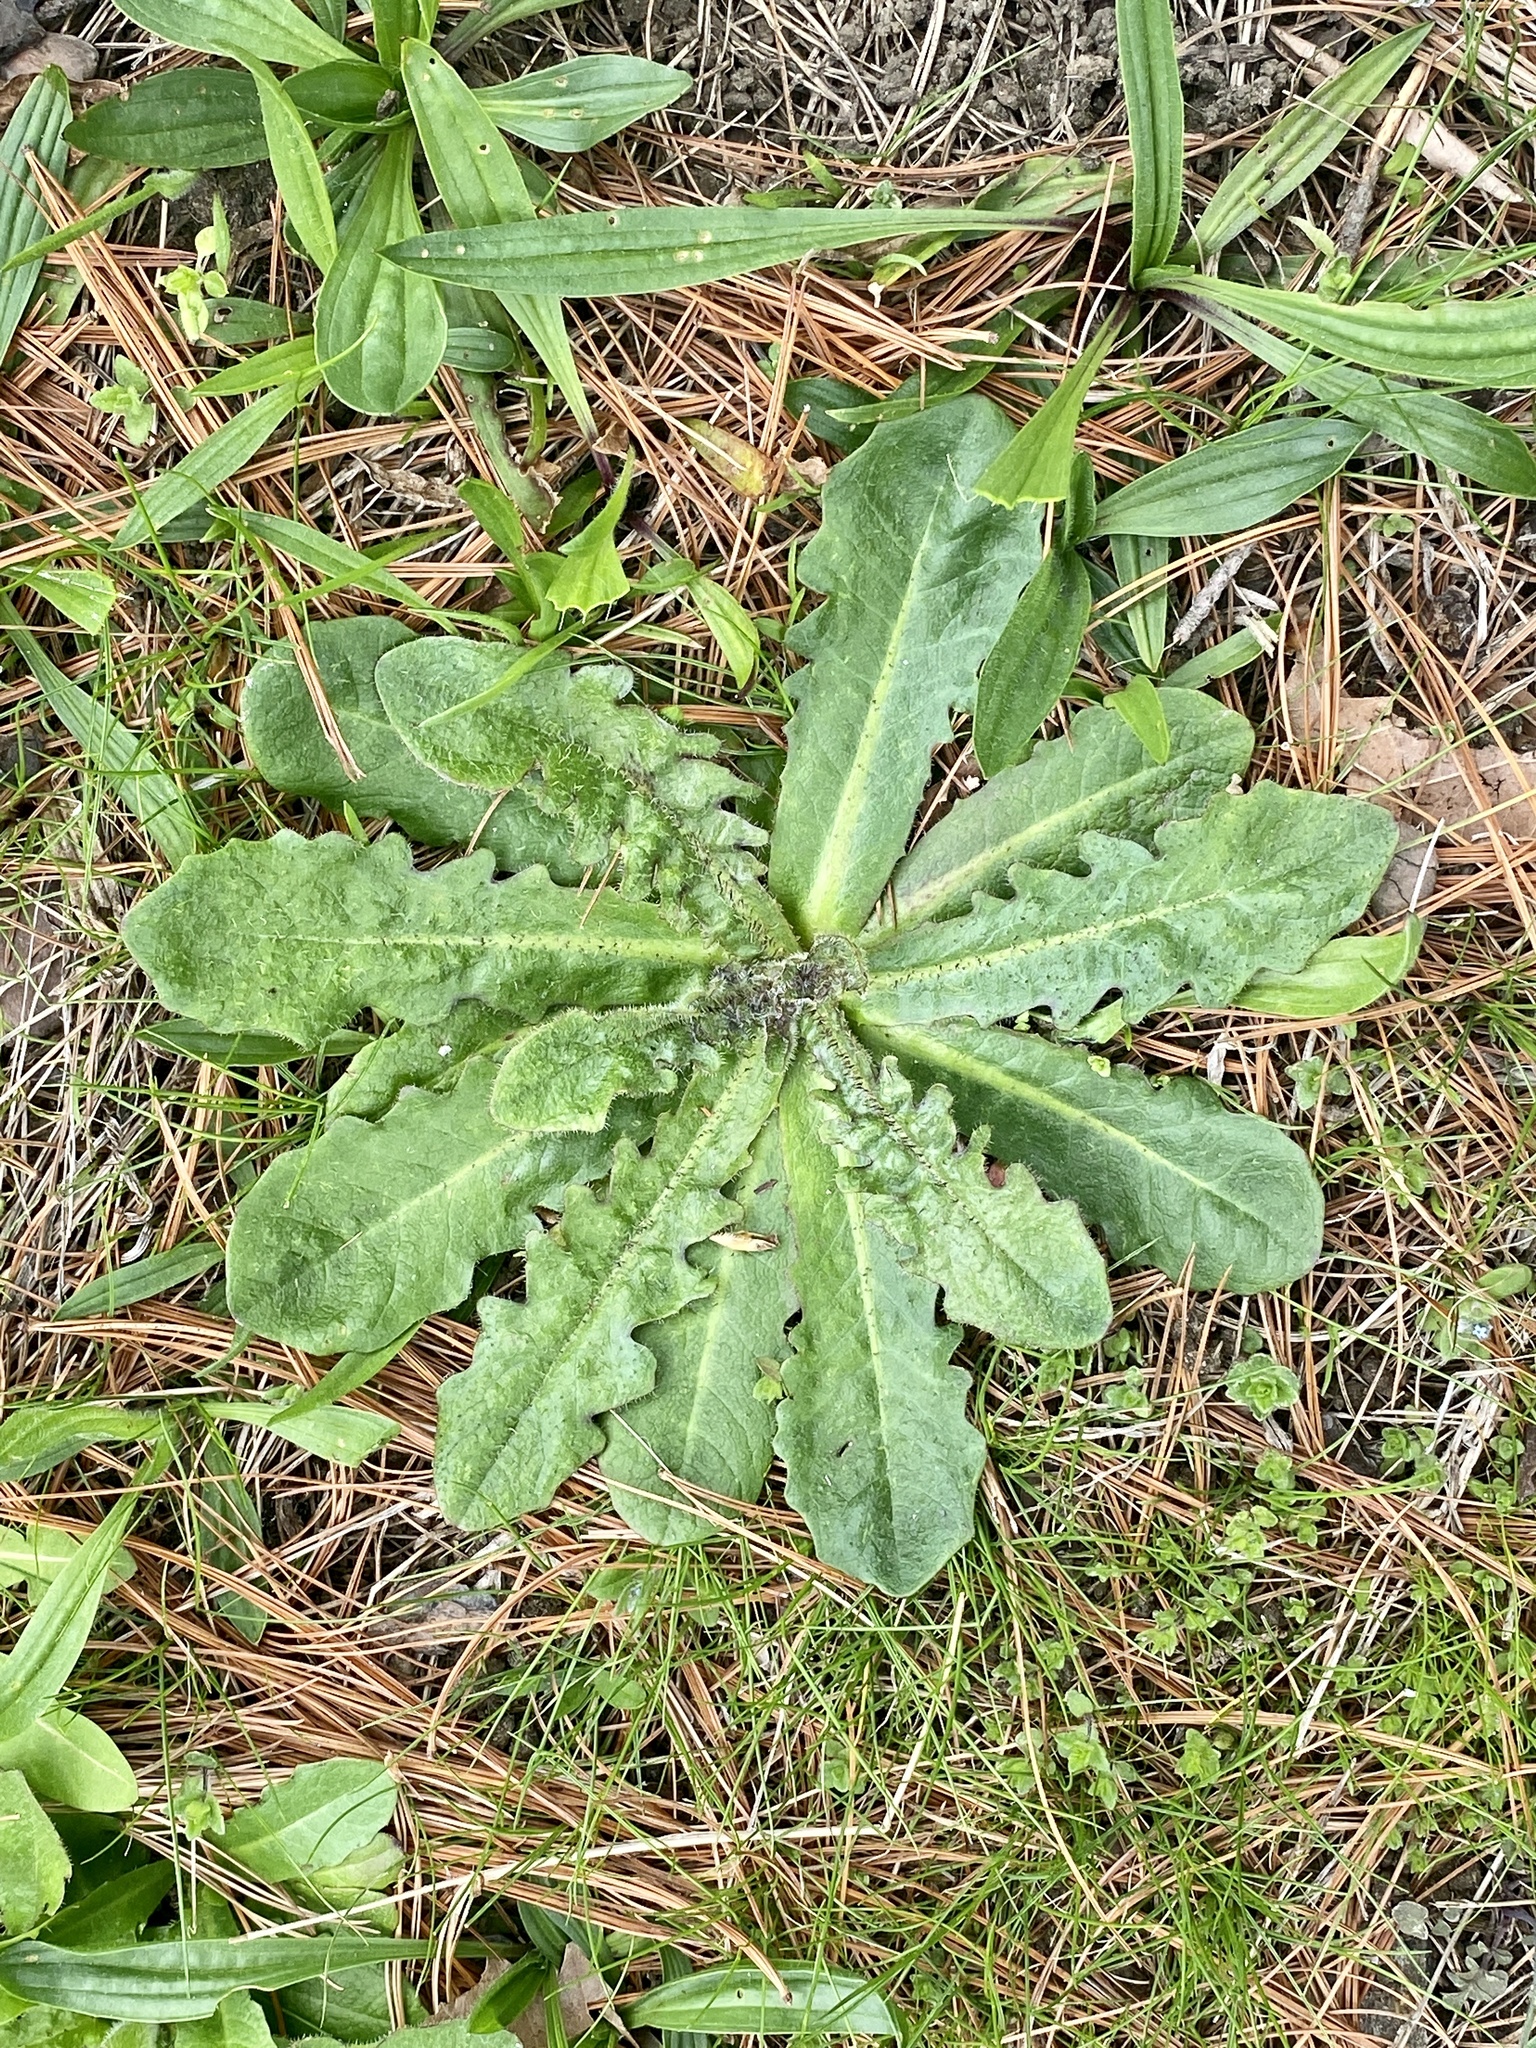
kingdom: Plantae
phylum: Tracheophyta
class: Magnoliopsida
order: Asterales
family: Asteraceae
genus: Hypochaeris
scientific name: Hypochaeris radicata
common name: Flatweed
